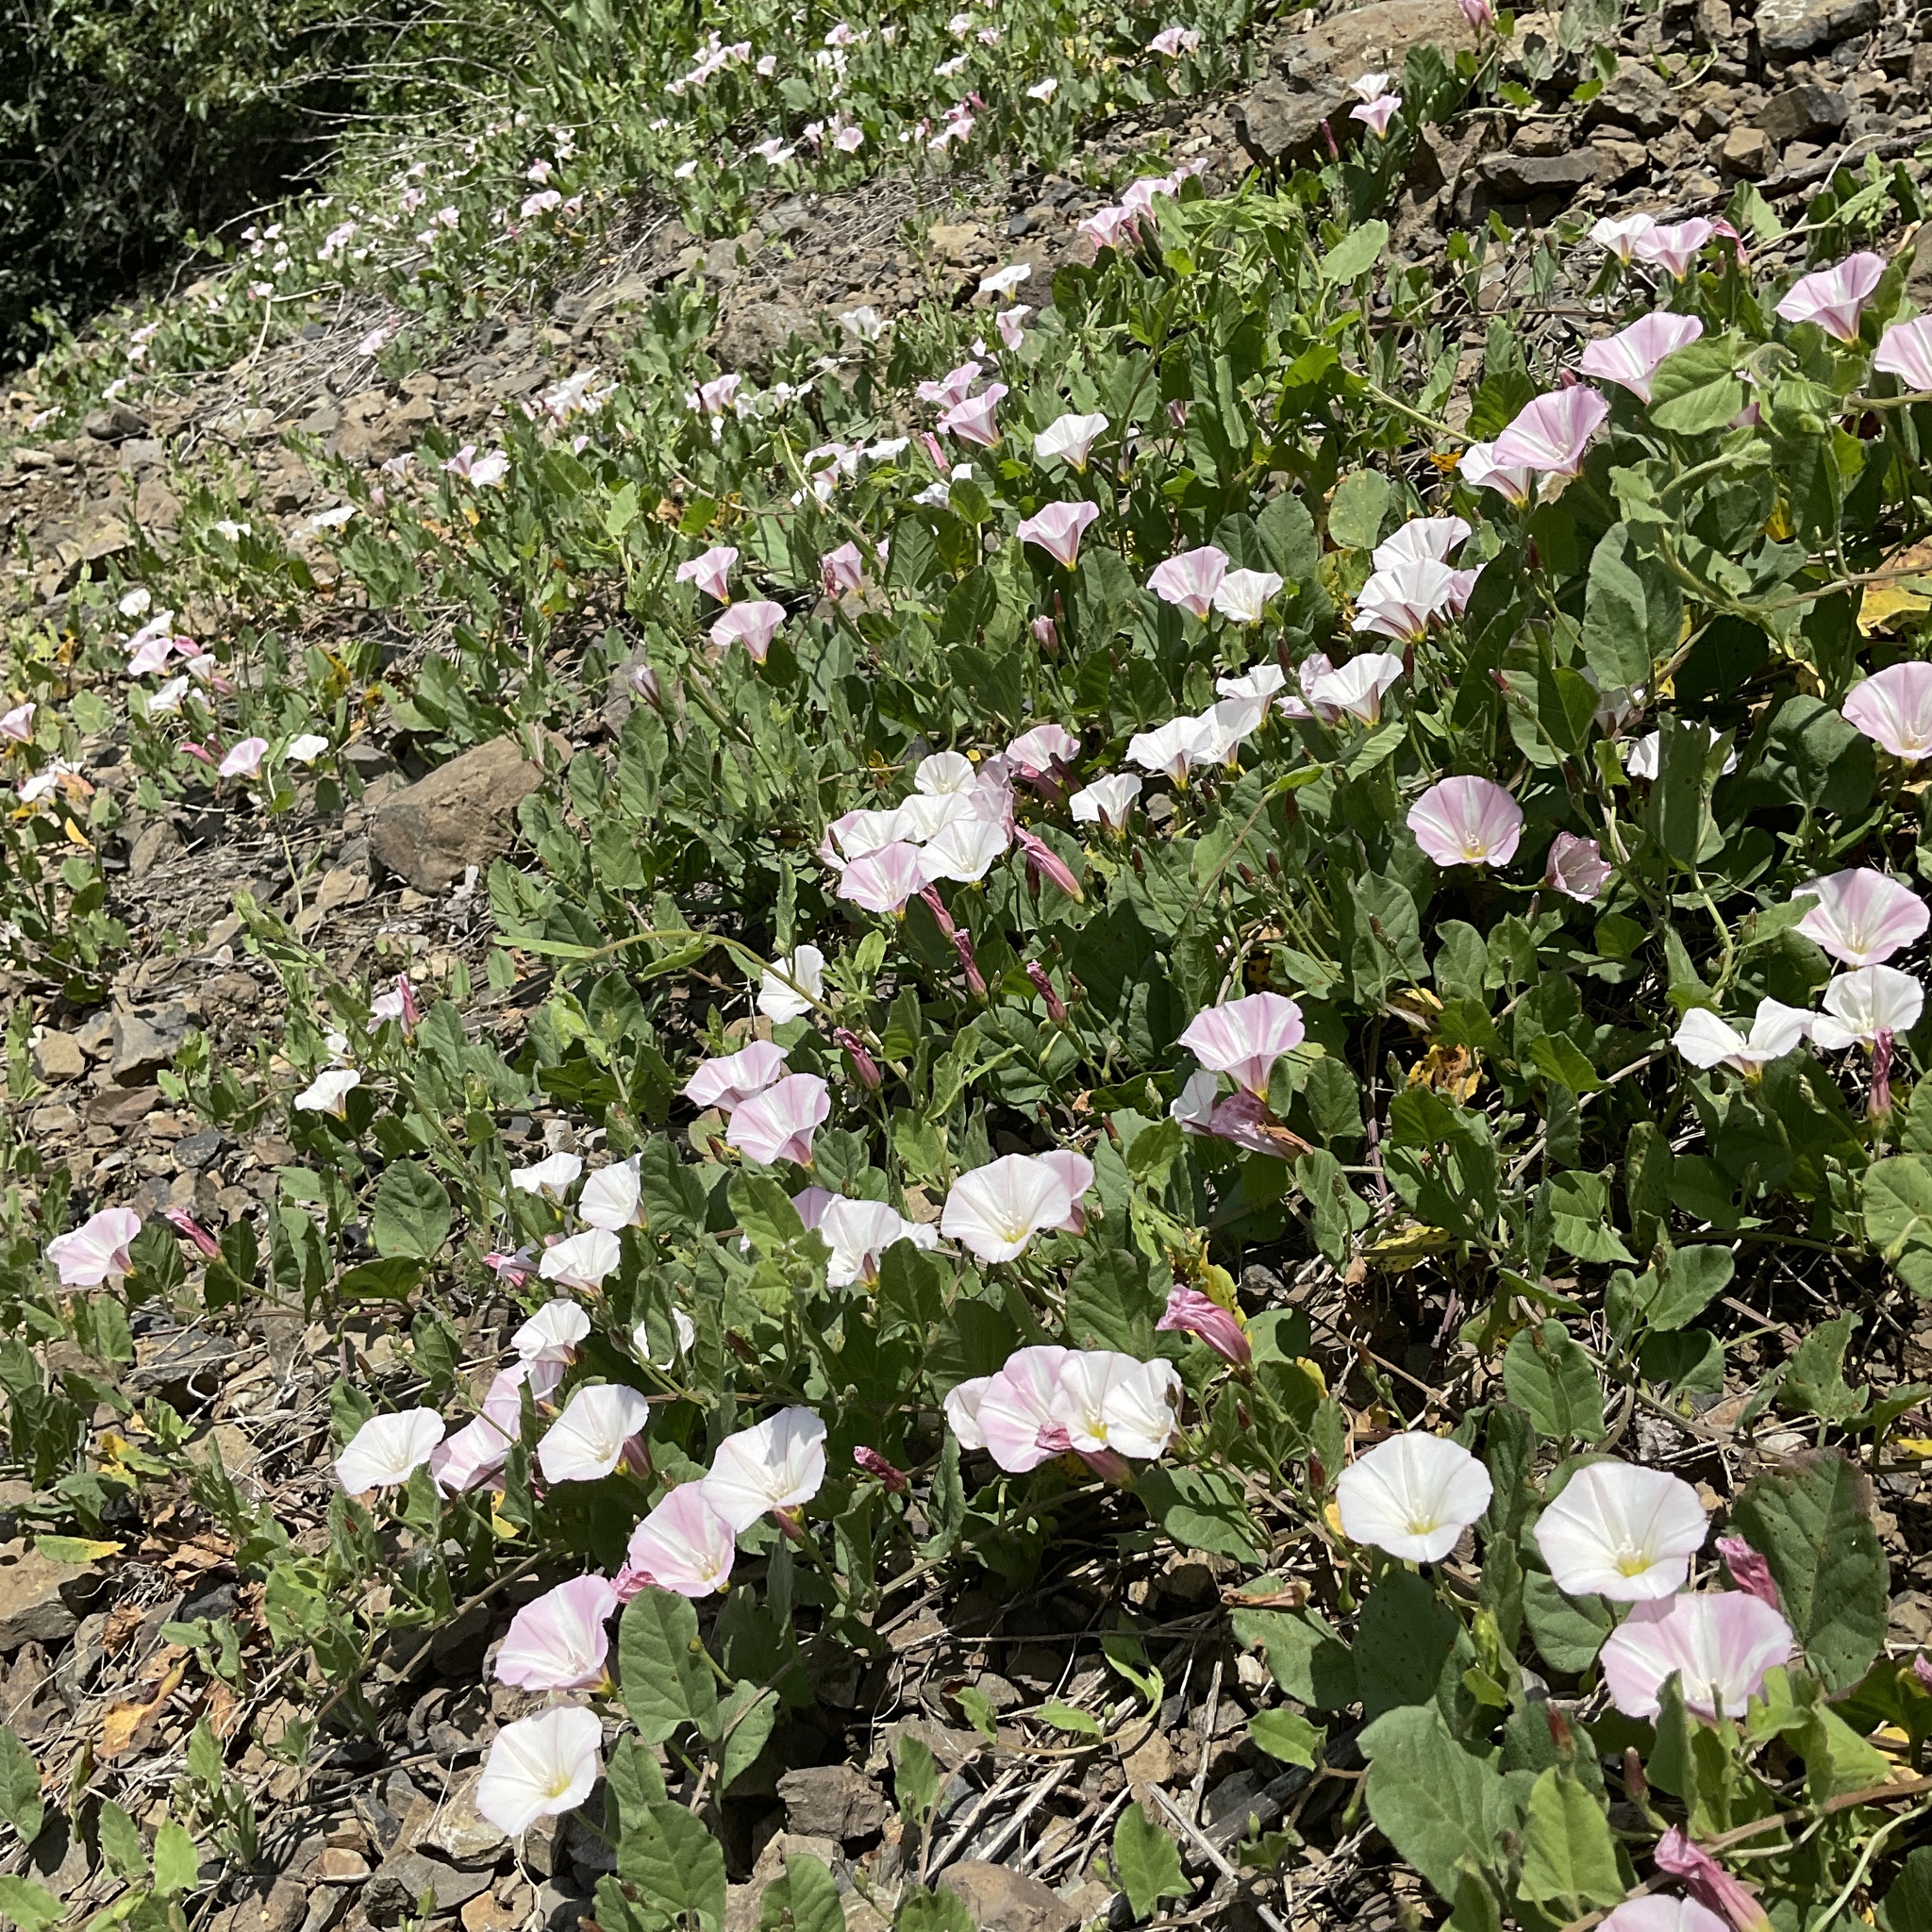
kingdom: Plantae
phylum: Tracheophyta
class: Magnoliopsida
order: Solanales
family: Convolvulaceae
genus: Convolvulus
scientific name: Convolvulus arvensis
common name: Field bindweed
